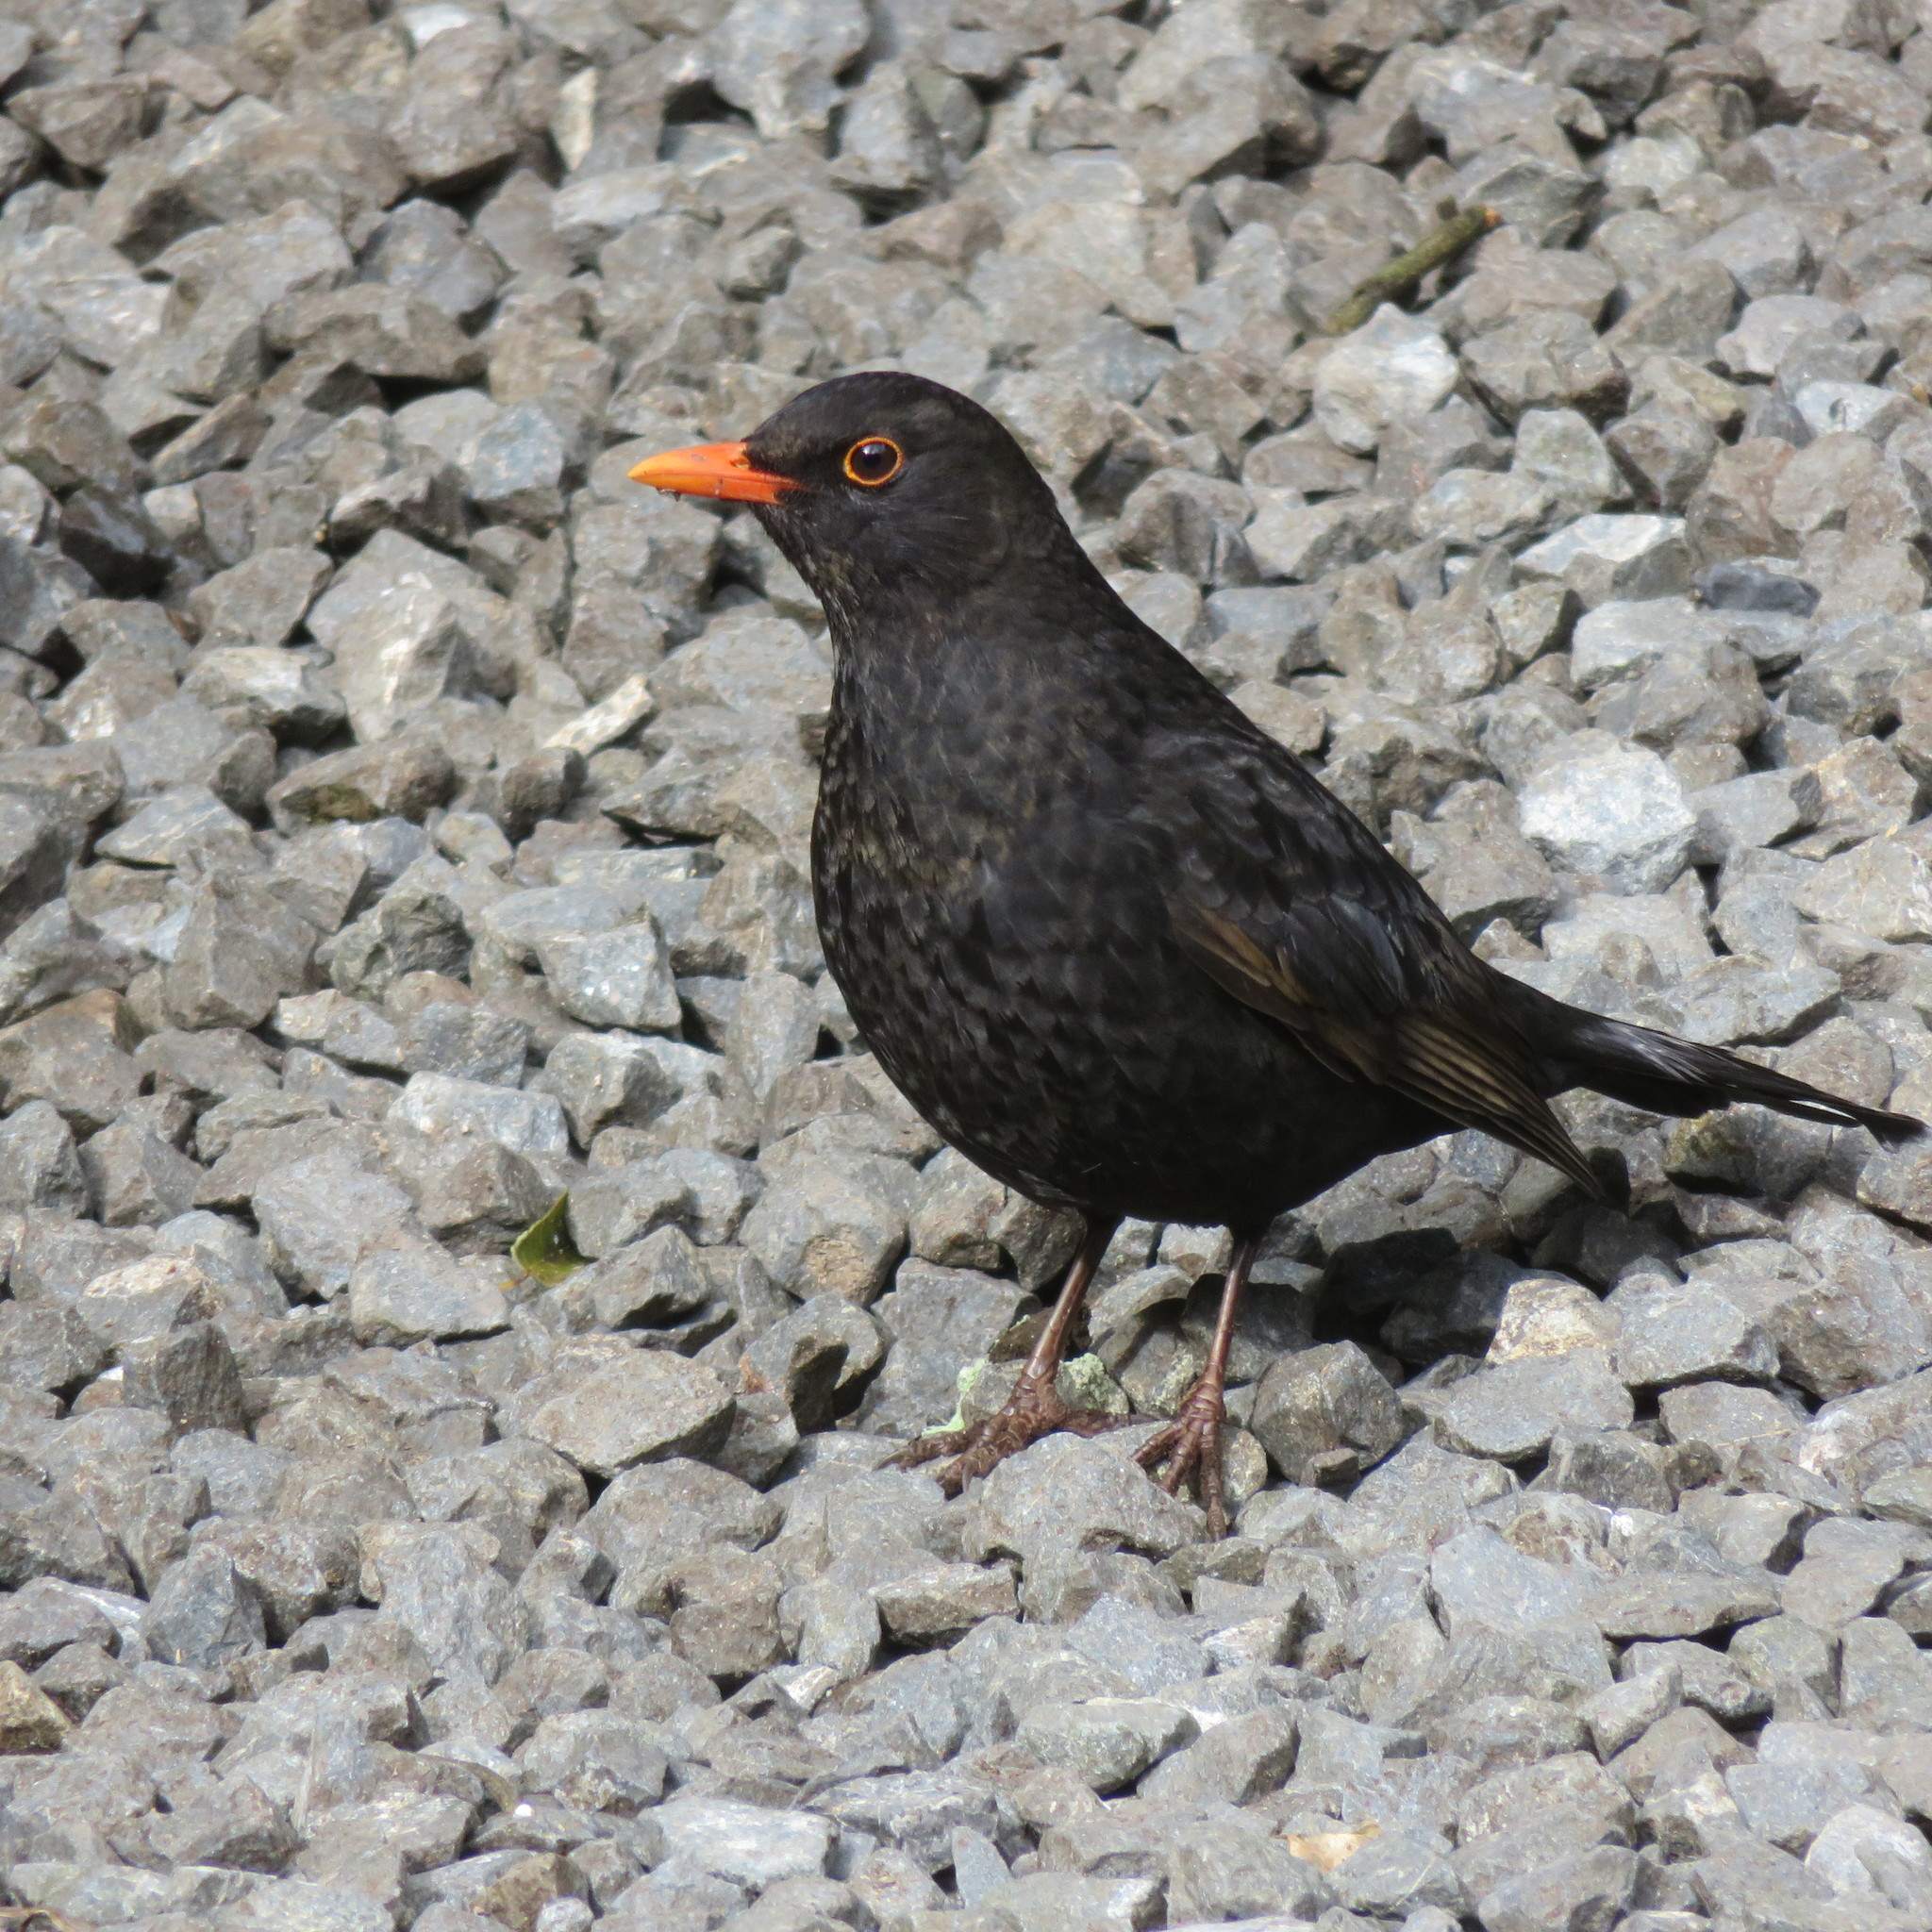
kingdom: Animalia
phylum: Chordata
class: Aves
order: Passeriformes
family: Turdidae
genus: Turdus
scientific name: Turdus merula
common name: Common blackbird
